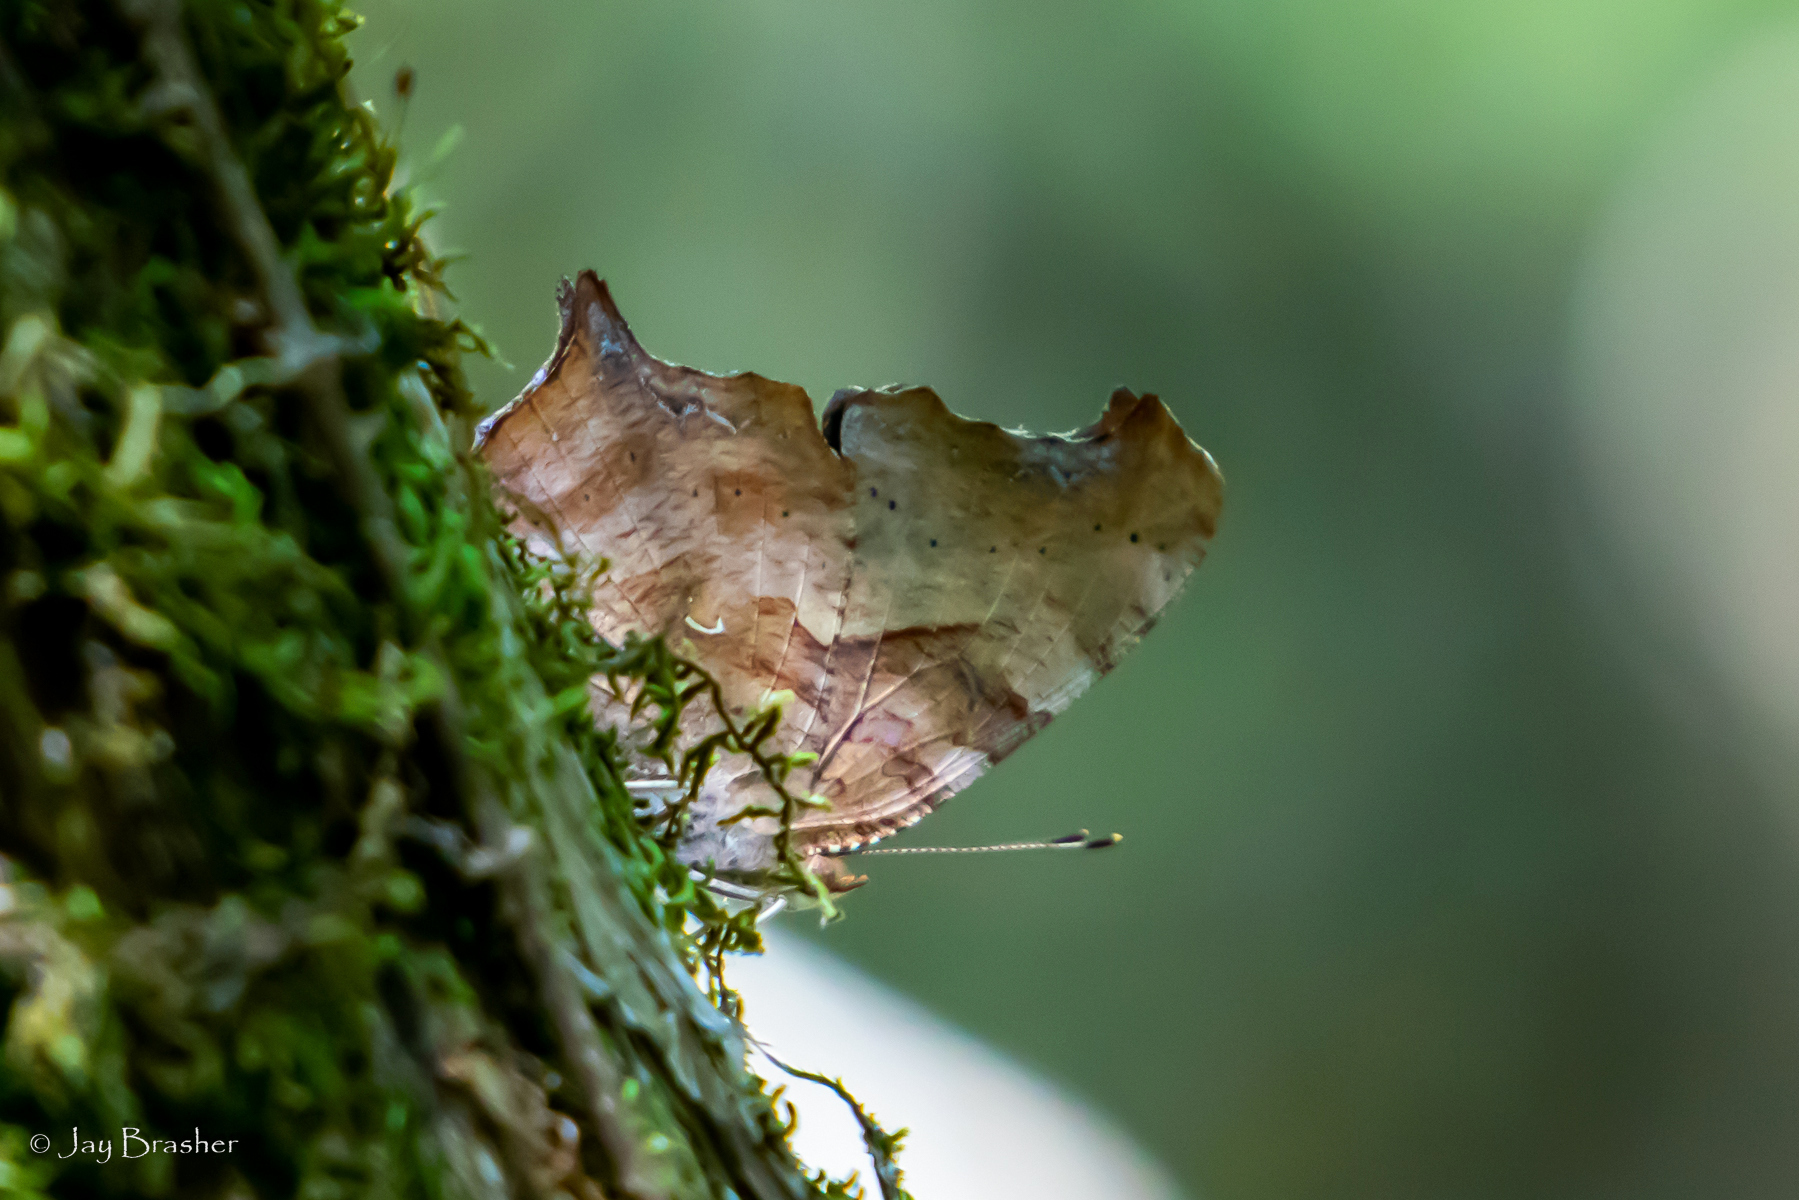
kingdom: Animalia
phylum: Arthropoda
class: Insecta
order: Lepidoptera
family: Nymphalidae
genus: Polygonia
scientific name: Polygonia interrogationis
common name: Question mark
